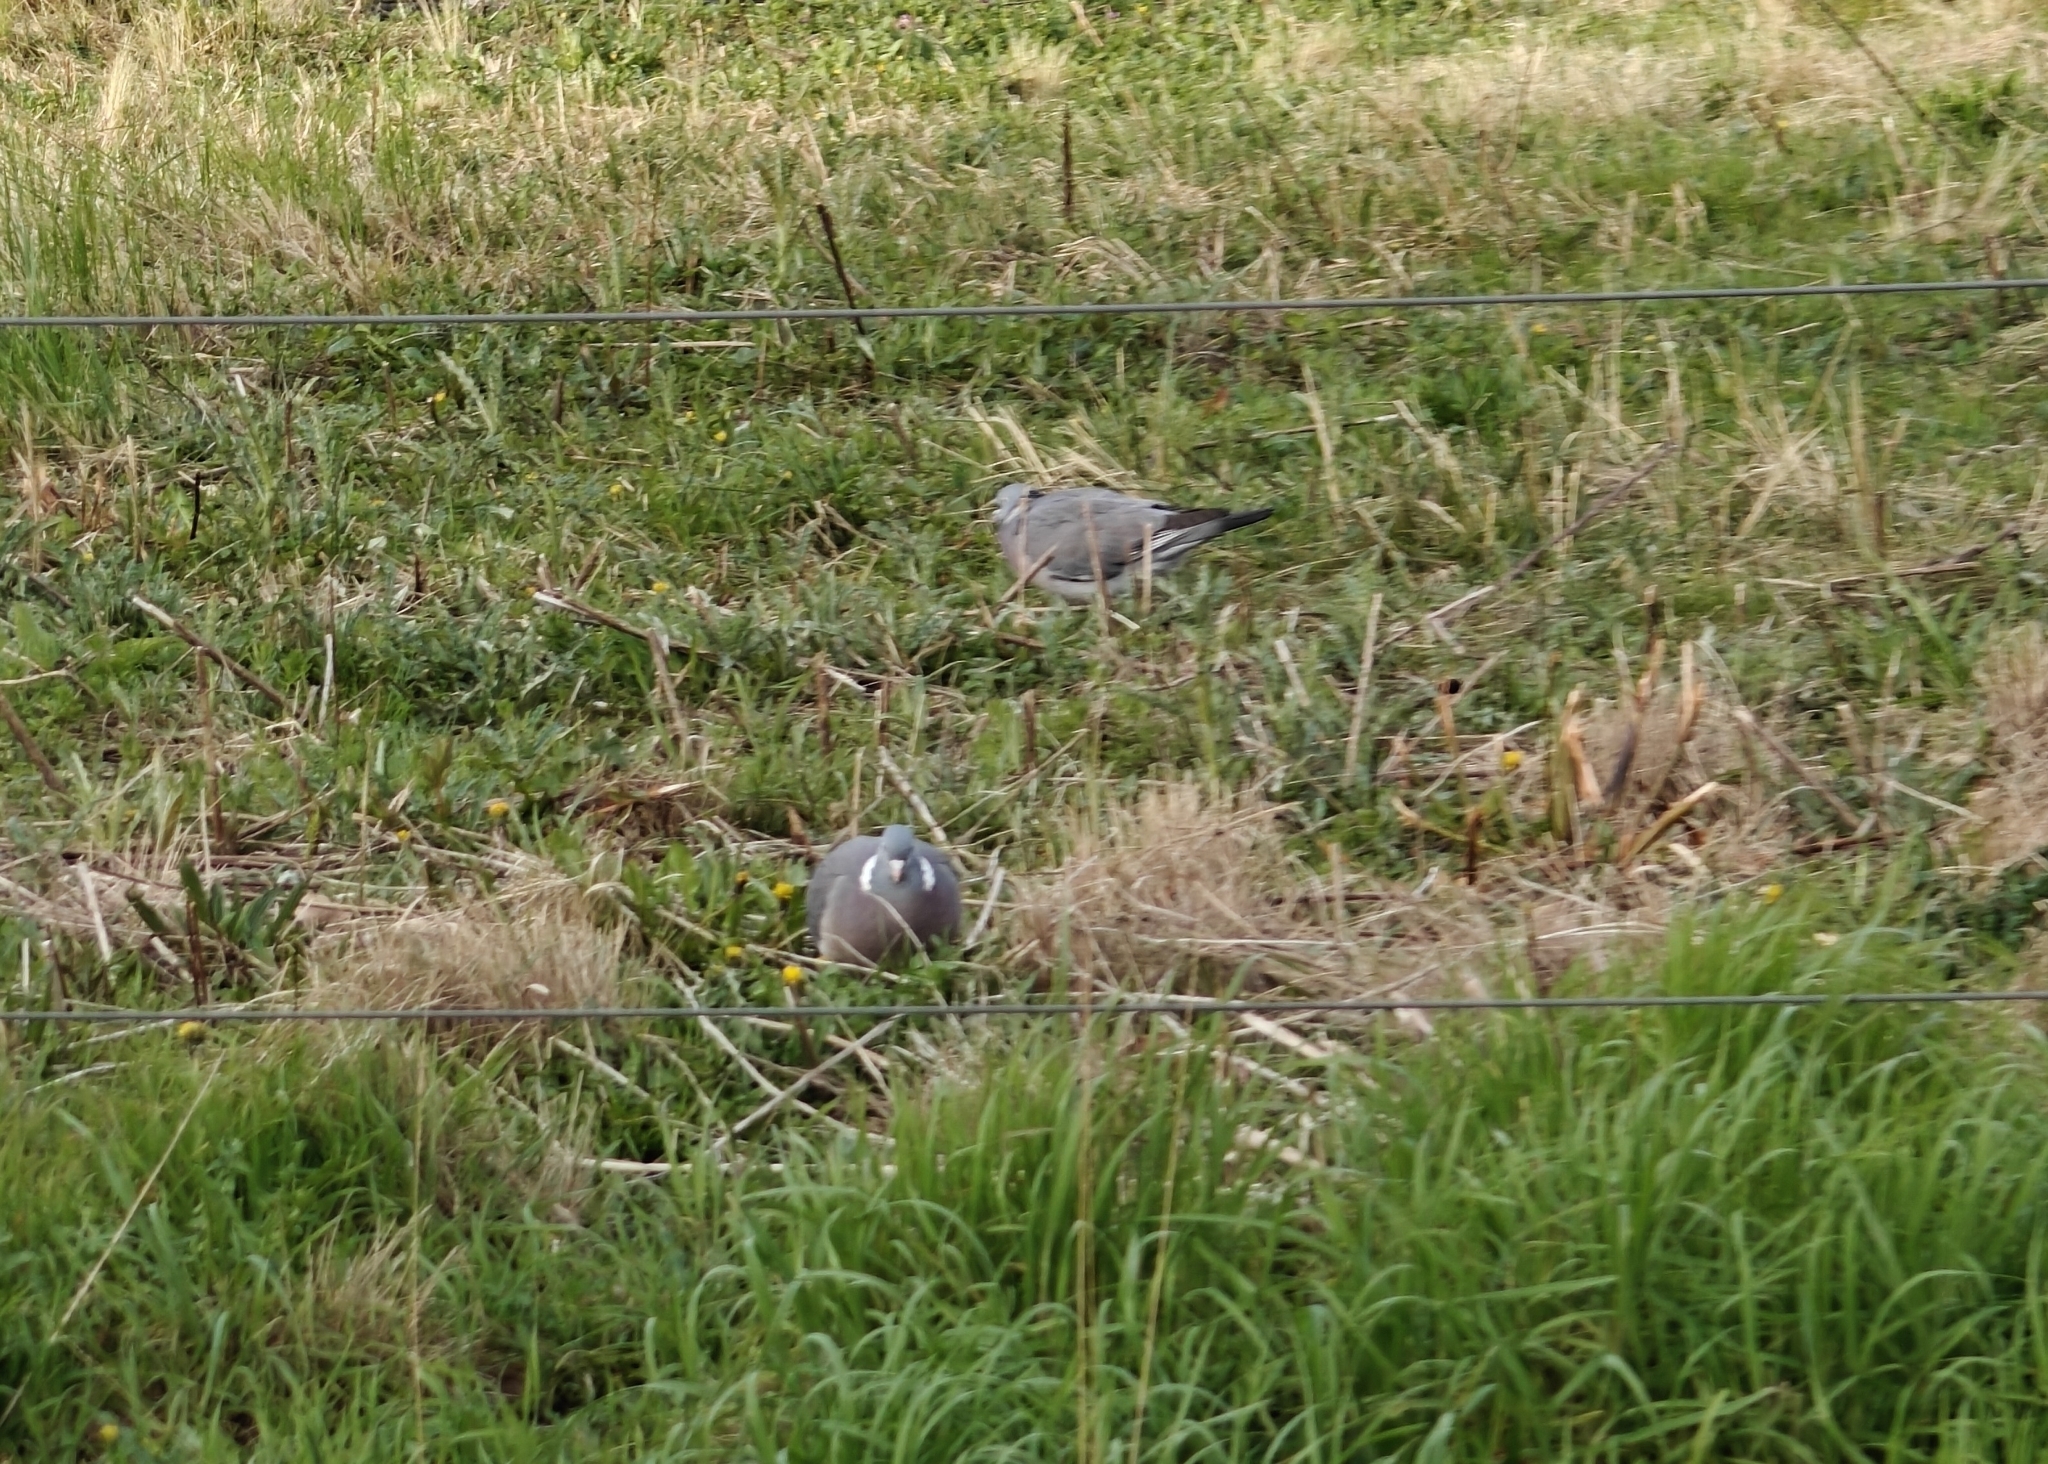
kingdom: Animalia
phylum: Chordata
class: Aves
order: Columbiformes
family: Columbidae
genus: Columba
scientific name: Columba palumbus
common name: Common wood pigeon
